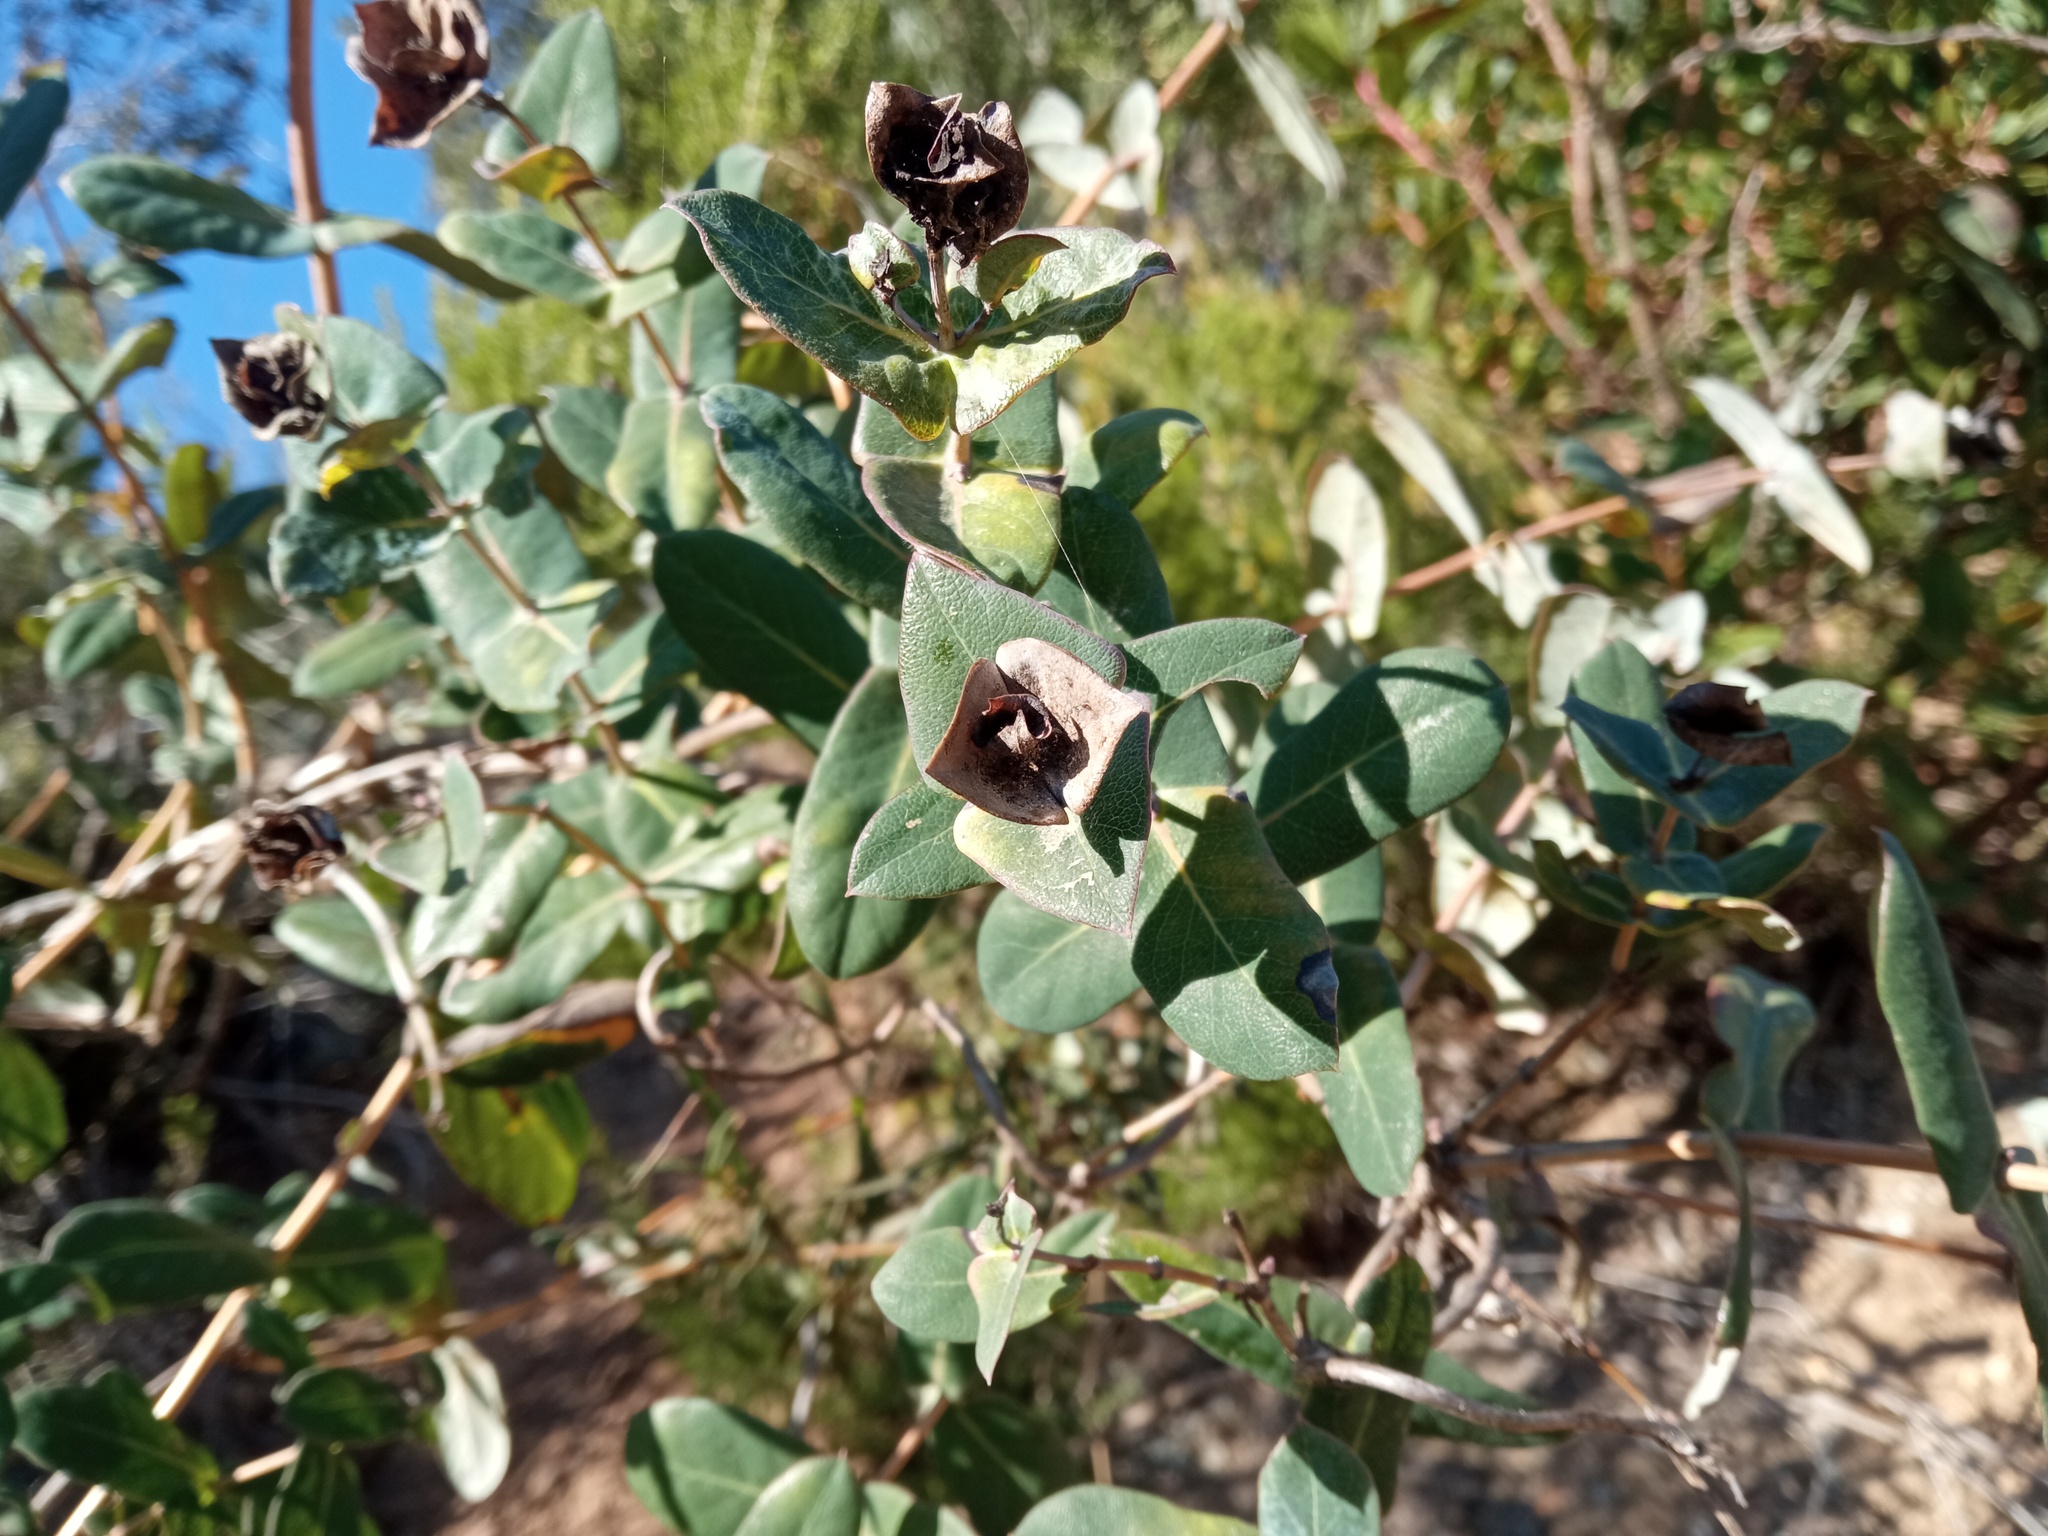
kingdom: Plantae
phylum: Tracheophyta
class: Magnoliopsida
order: Dipsacales
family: Caprifoliaceae
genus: Lonicera
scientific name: Lonicera implexa
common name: Minorca honeysuckle
